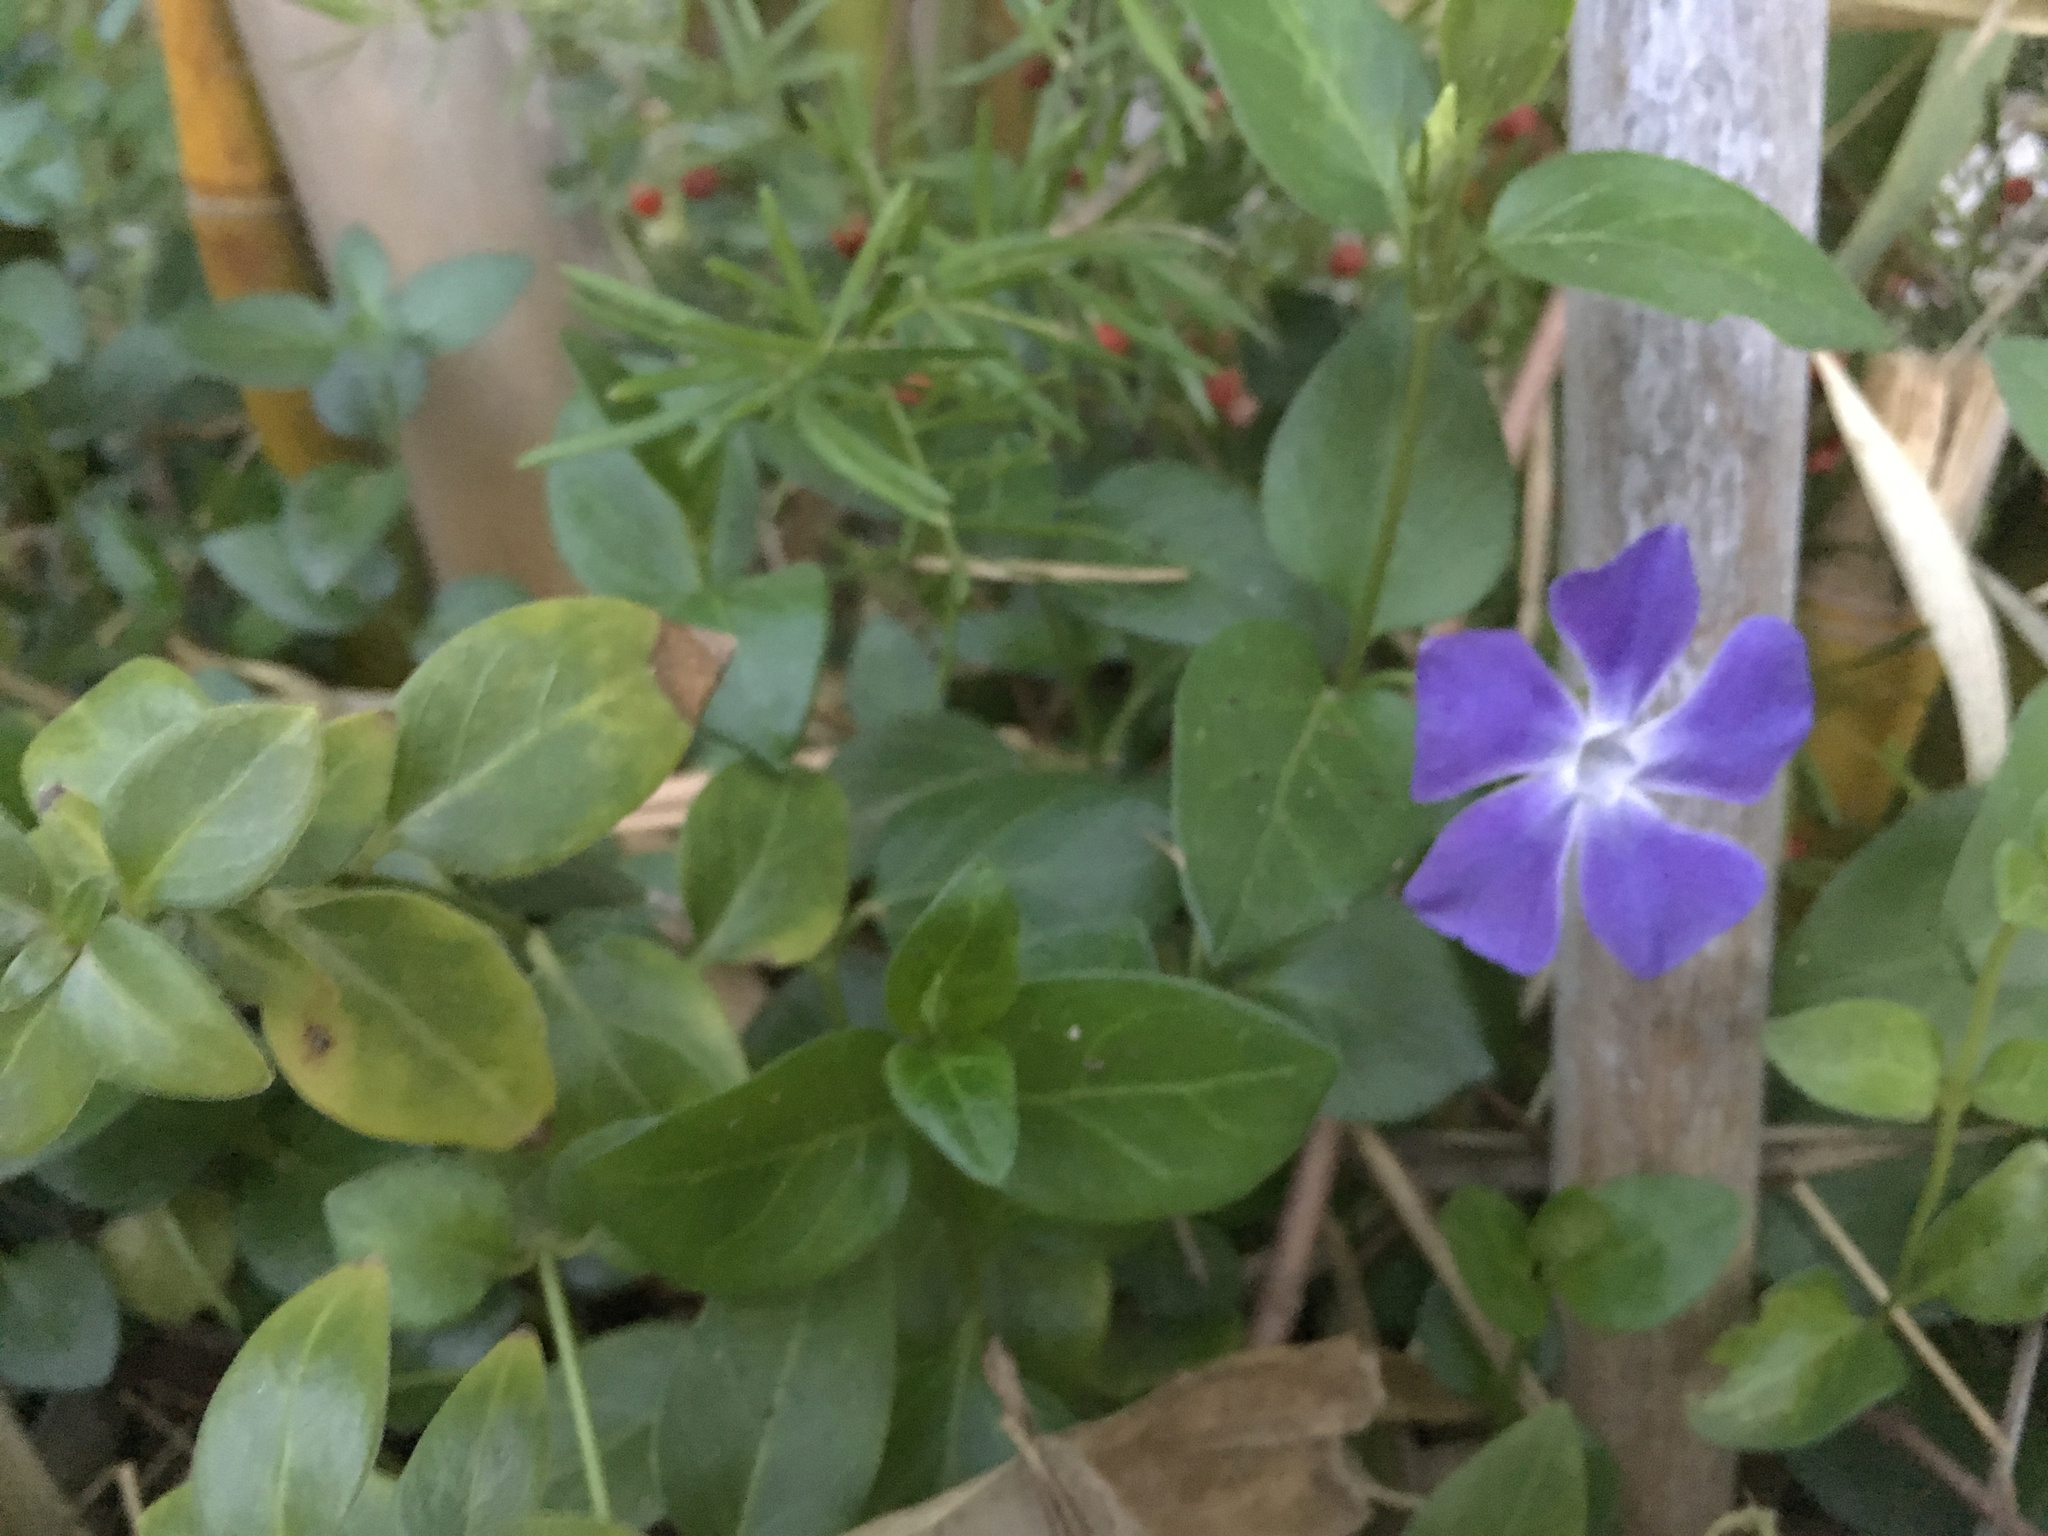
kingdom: Plantae
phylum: Tracheophyta
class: Magnoliopsida
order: Gentianales
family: Apocynaceae
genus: Vinca
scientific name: Vinca major
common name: Greater periwinkle
